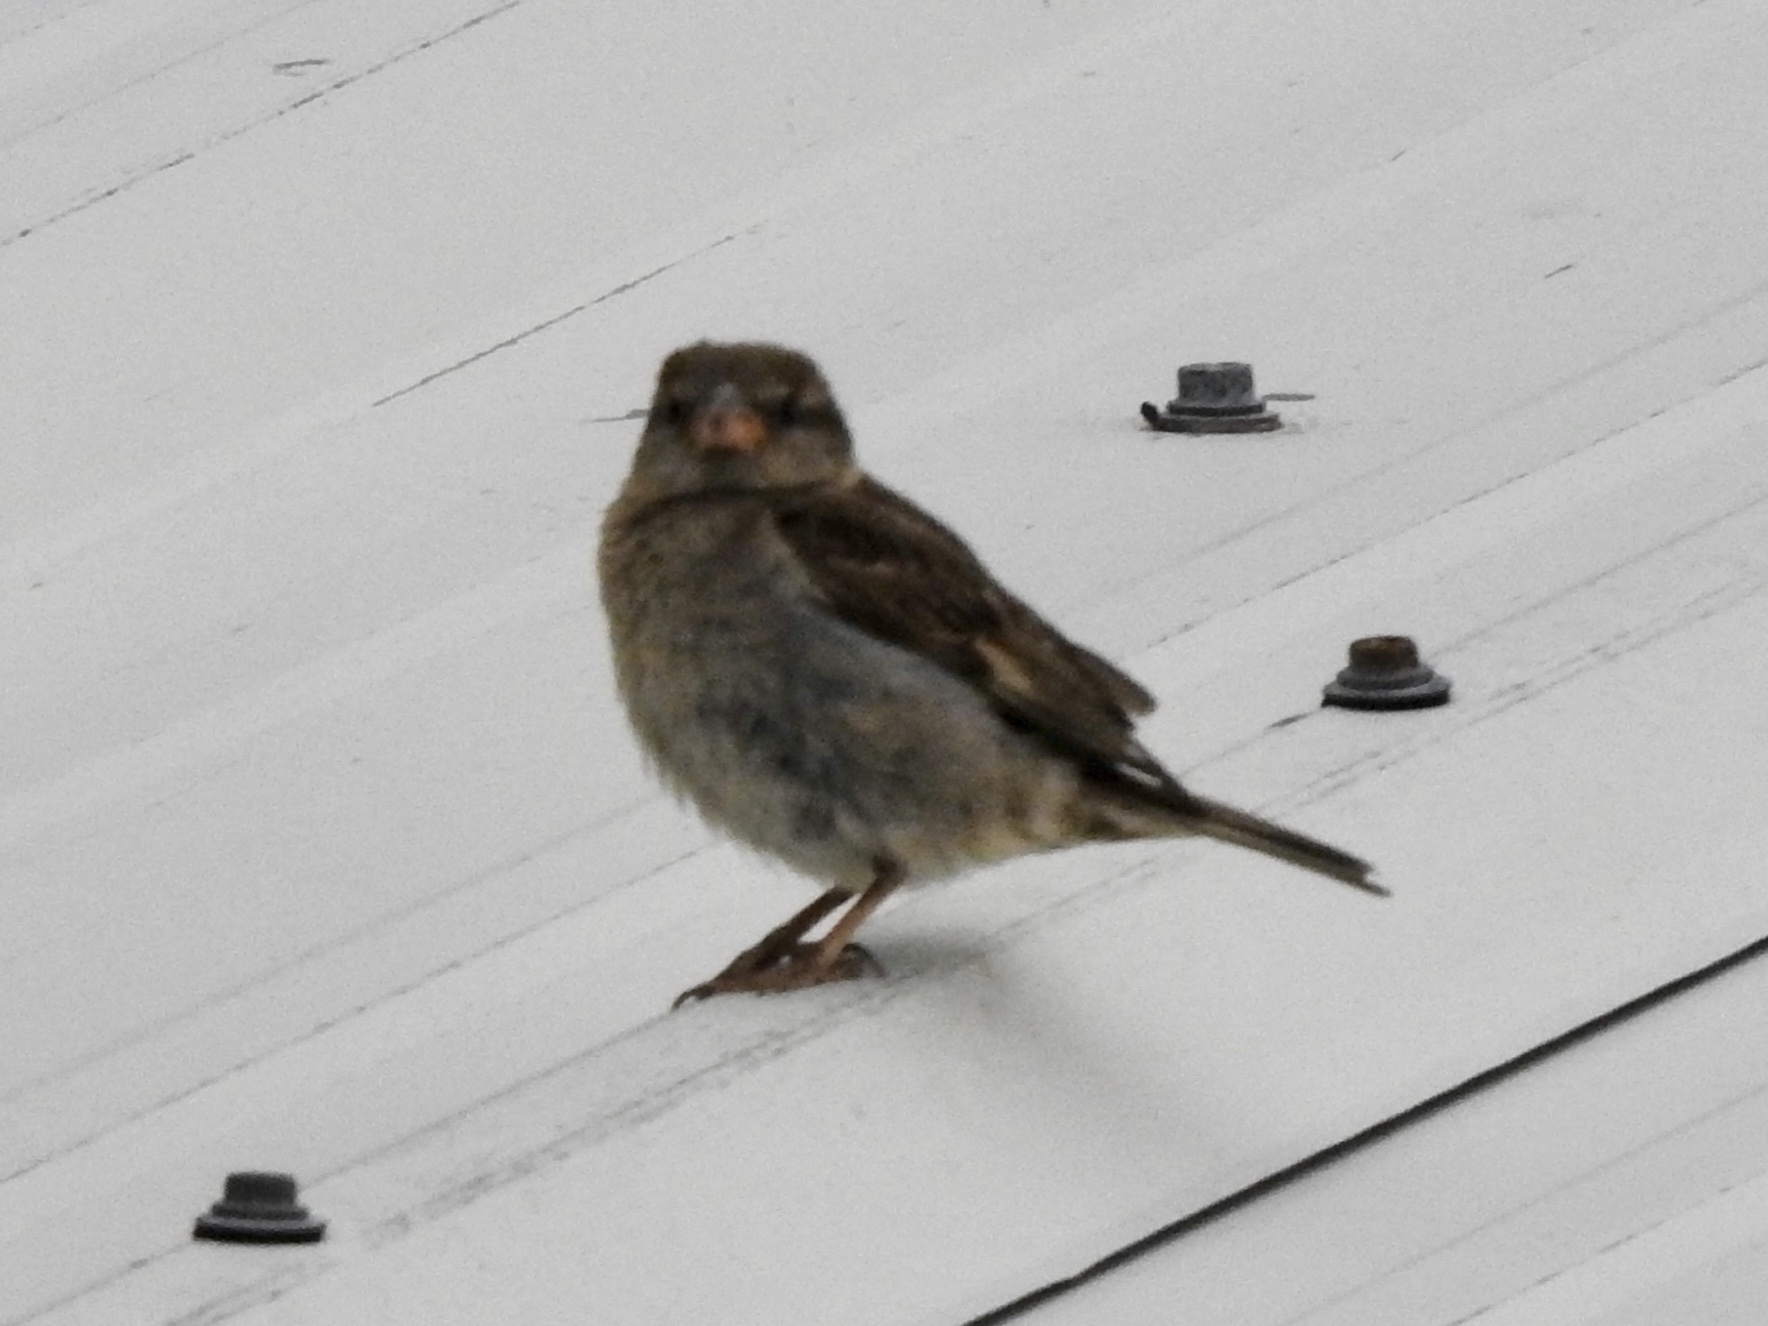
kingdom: Animalia
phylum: Chordata
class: Aves
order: Passeriformes
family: Passeridae
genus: Passer
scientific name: Passer domesticus
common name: House sparrow
